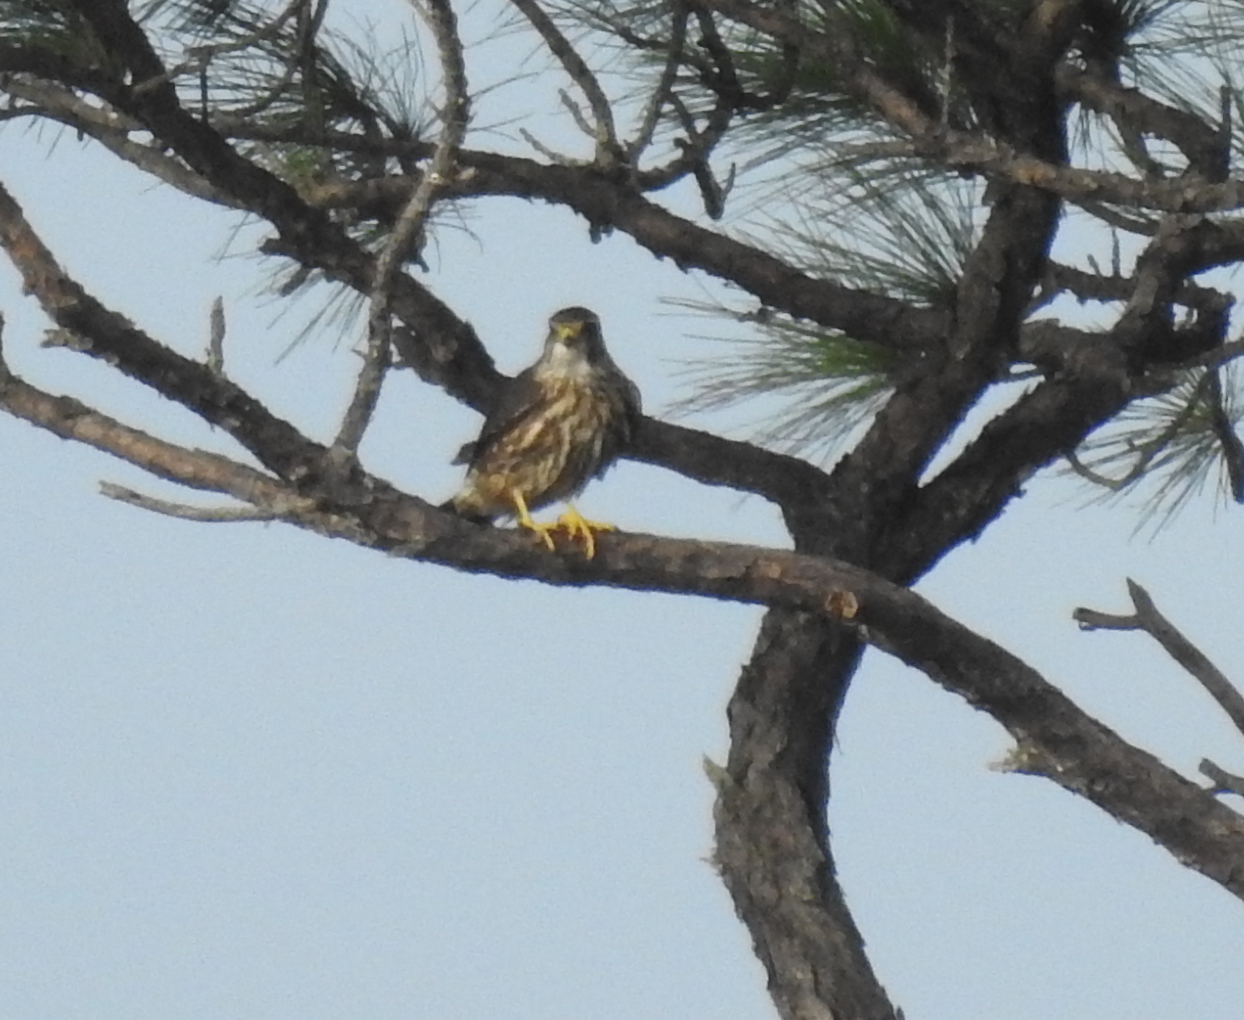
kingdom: Animalia
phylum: Chordata
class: Aves
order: Falconiformes
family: Falconidae
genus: Falco
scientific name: Falco columbarius
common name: Merlin
